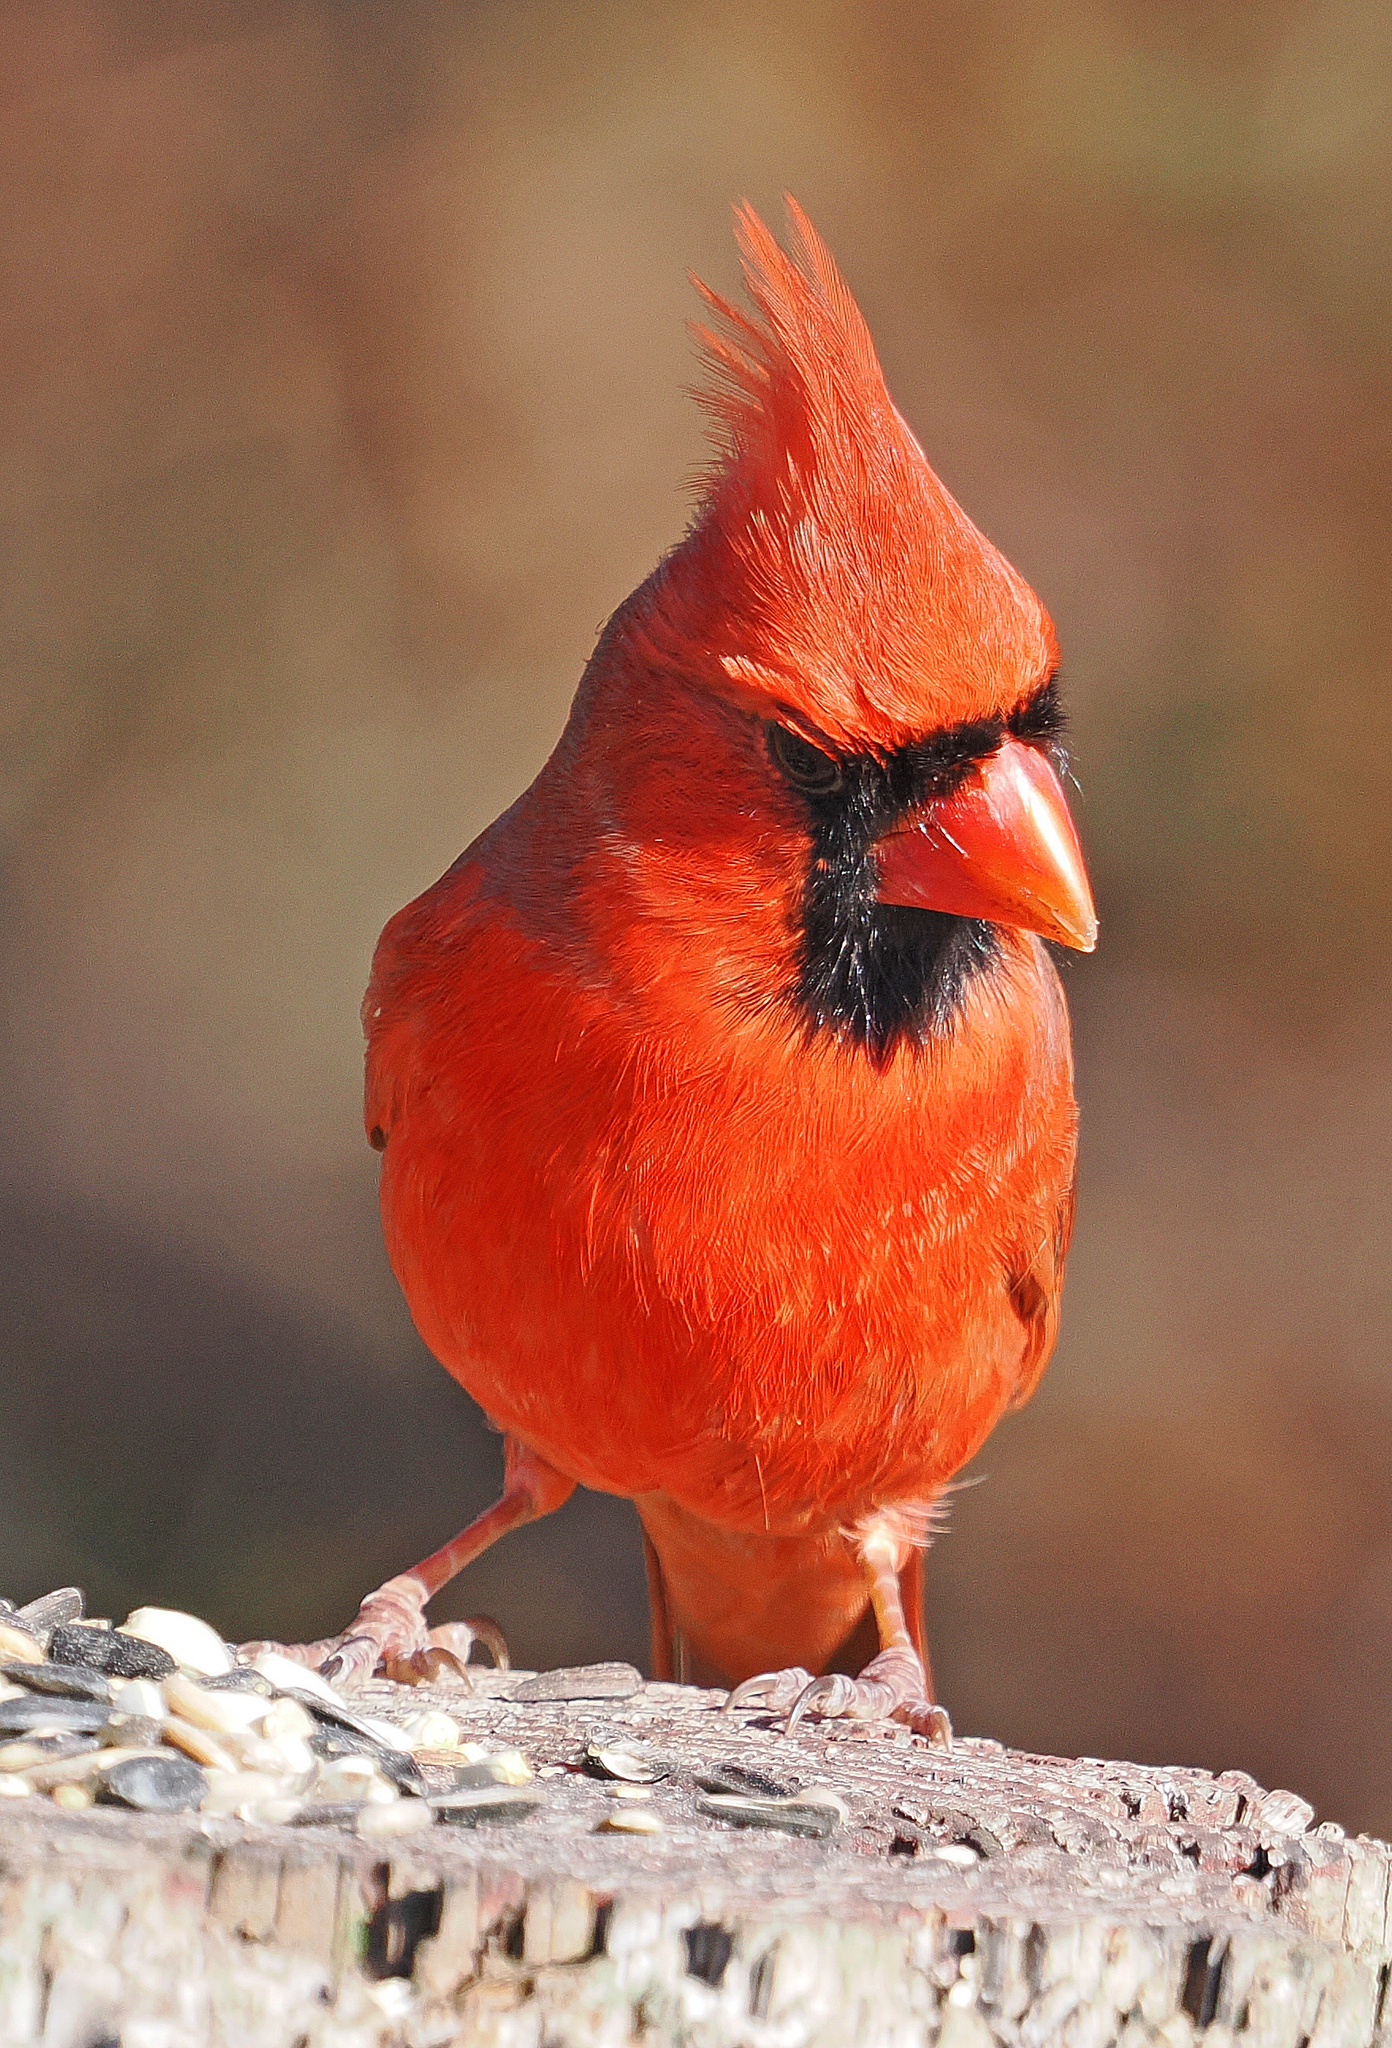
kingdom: Animalia
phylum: Chordata
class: Aves
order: Passeriformes
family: Cardinalidae
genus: Cardinalis
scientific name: Cardinalis cardinalis
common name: Northern cardinal
